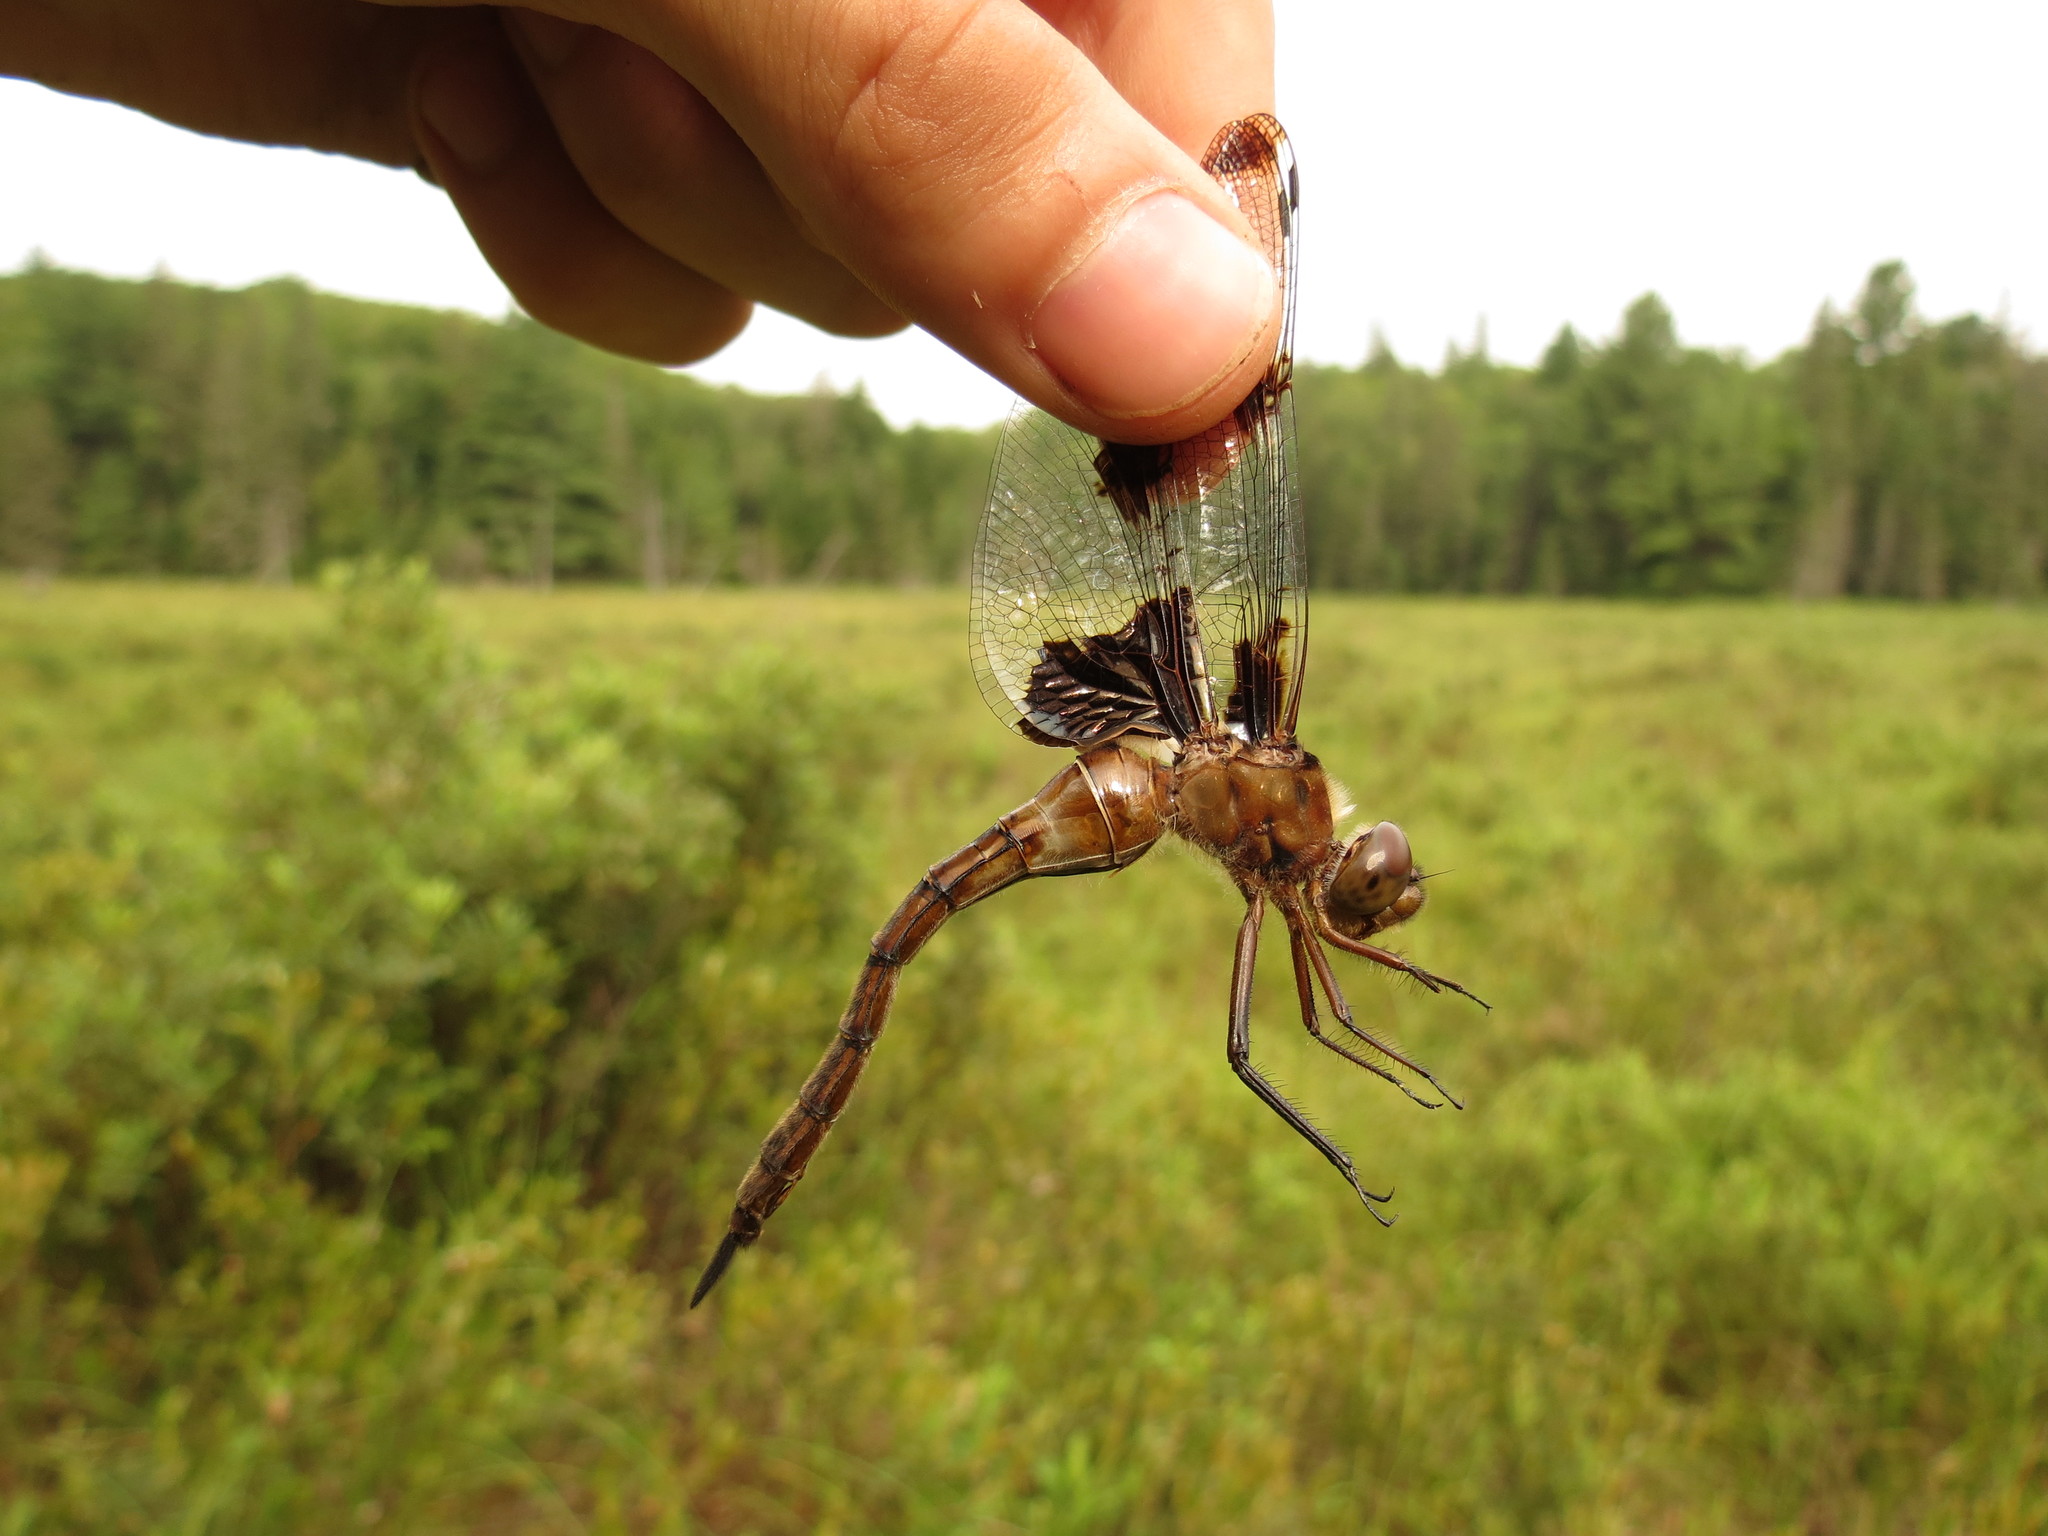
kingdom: Animalia
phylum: Arthropoda
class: Insecta
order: Odonata
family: Corduliidae
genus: Epitheca
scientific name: Epitheca princeps
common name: Prince baskettail
